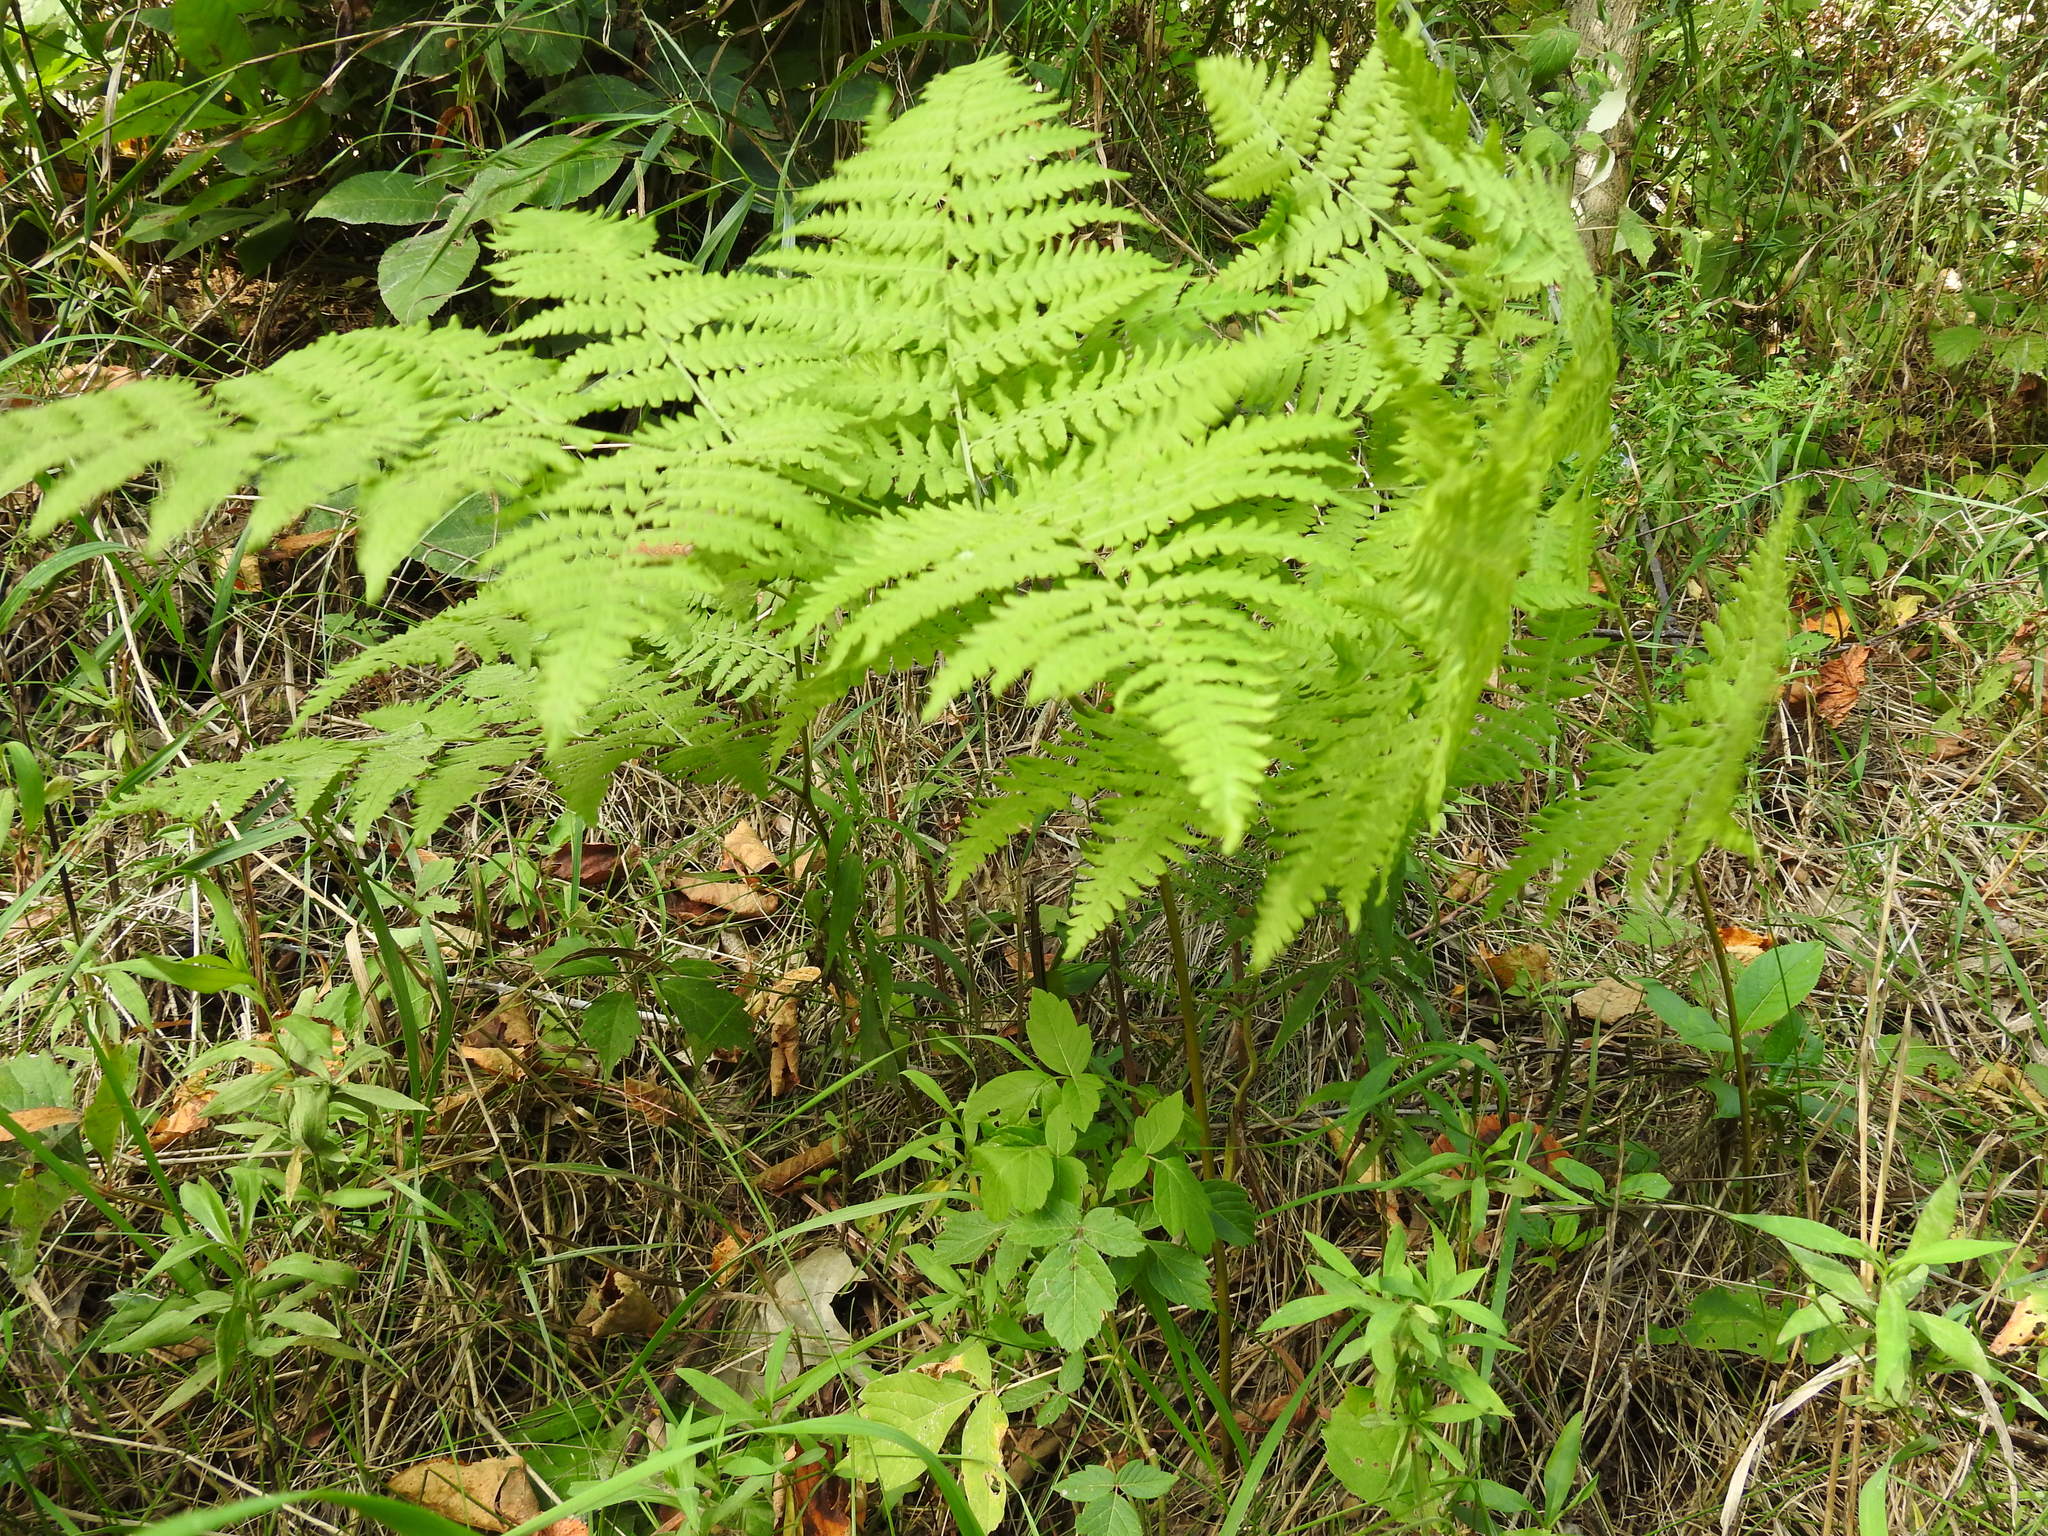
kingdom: Plantae
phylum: Tracheophyta
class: Polypodiopsida
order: Polypodiales
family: Dennstaedtiaceae
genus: Pteridium
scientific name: Pteridium aquilinum
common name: Bracken
